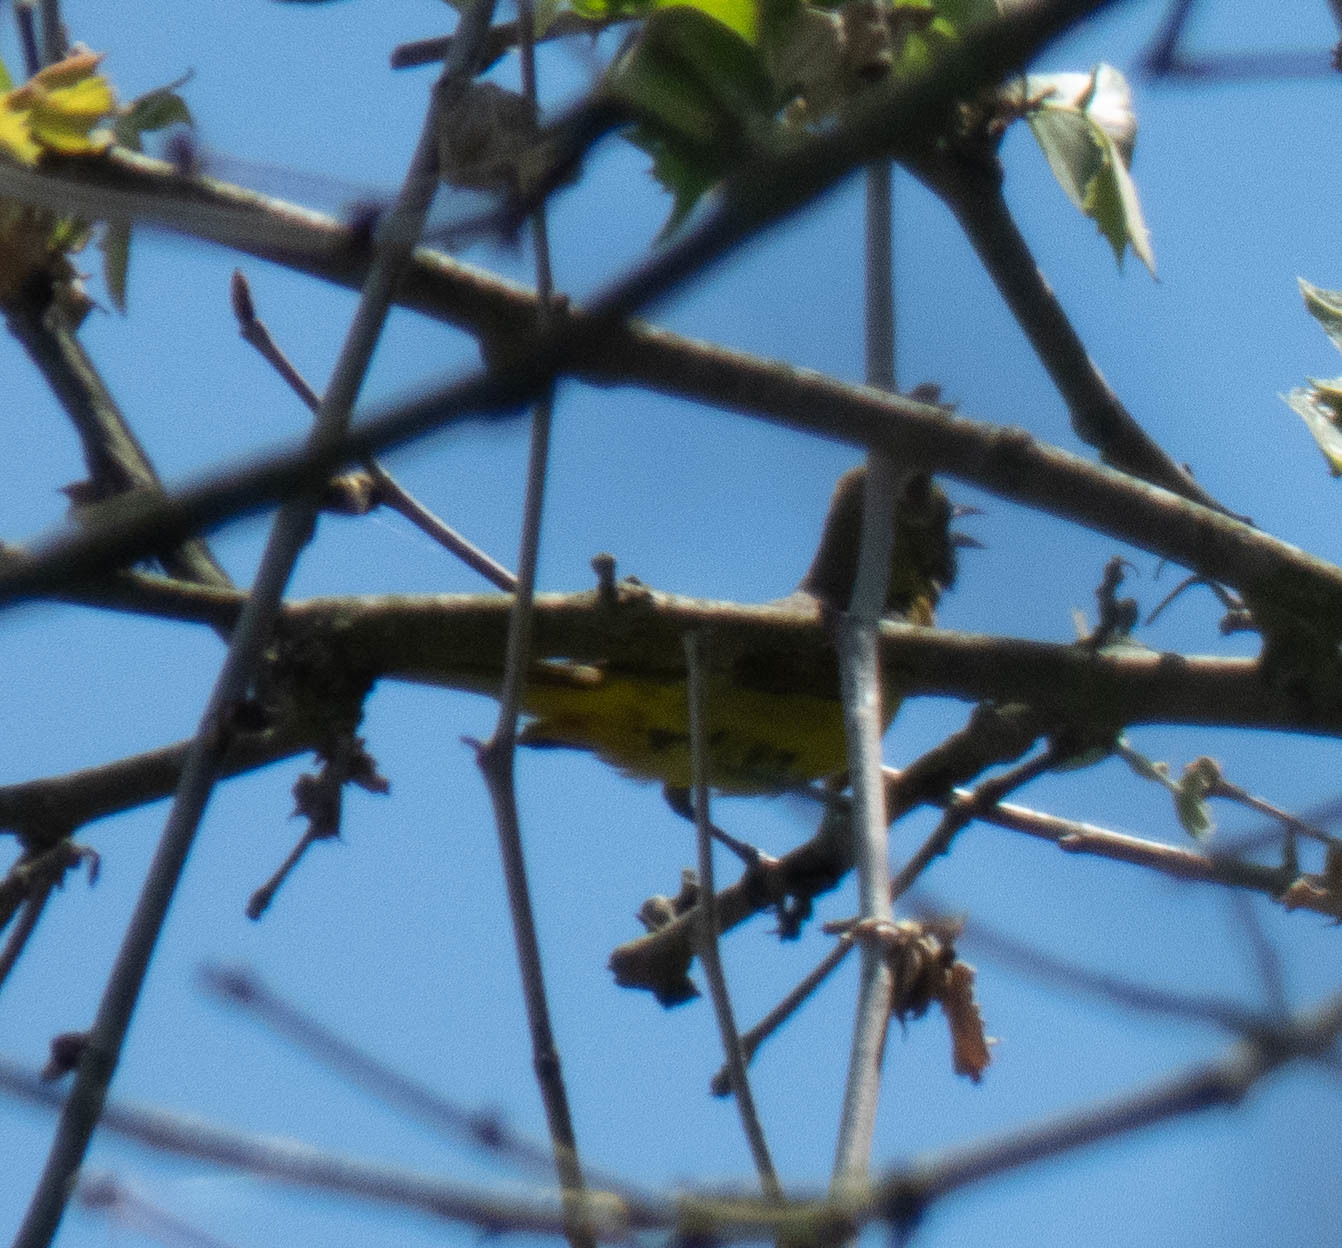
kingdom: Animalia
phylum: Chordata
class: Aves
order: Passeriformes
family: Icteridae
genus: Icterus
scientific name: Icterus spurius
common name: Orchard oriole
